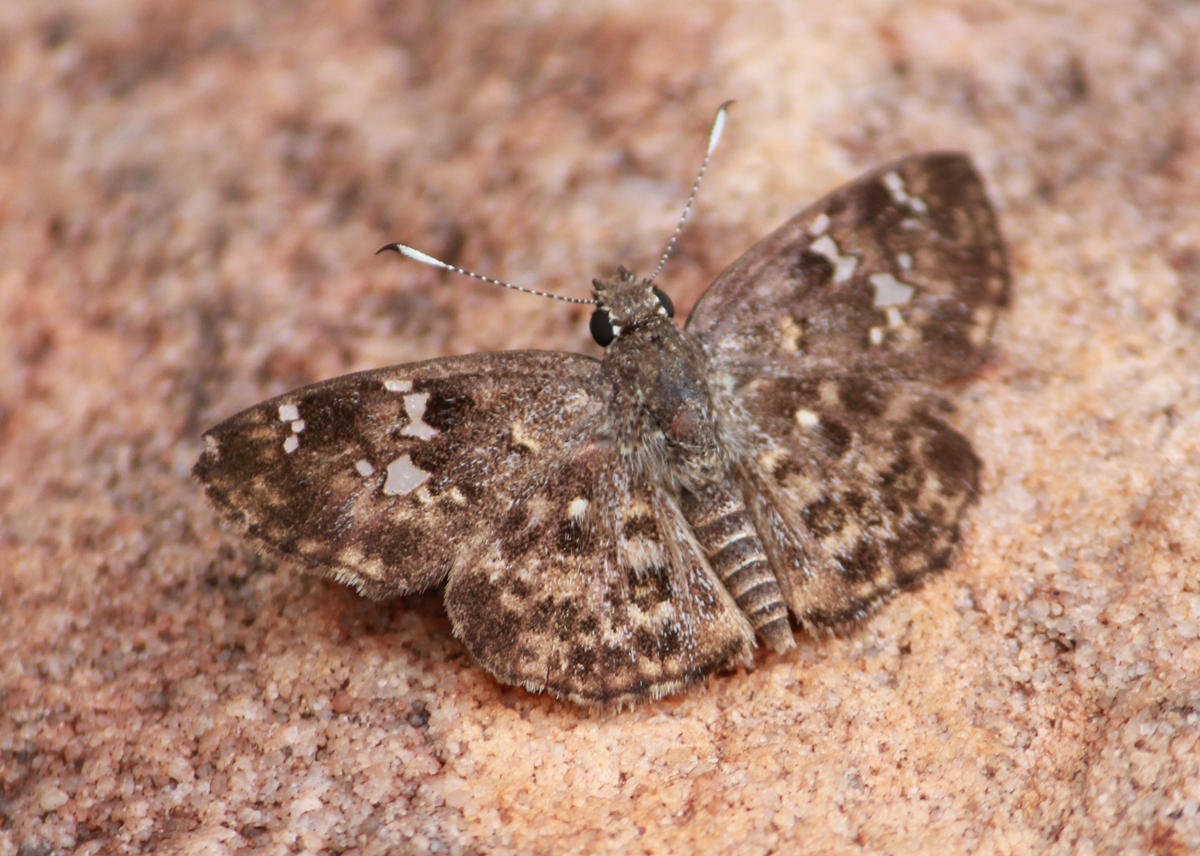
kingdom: Animalia
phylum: Arthropoda
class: Insecta
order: Lepidoptera
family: Hesperiidae
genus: Sarangesa
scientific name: Sarangesa seineri
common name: Dark elfin
